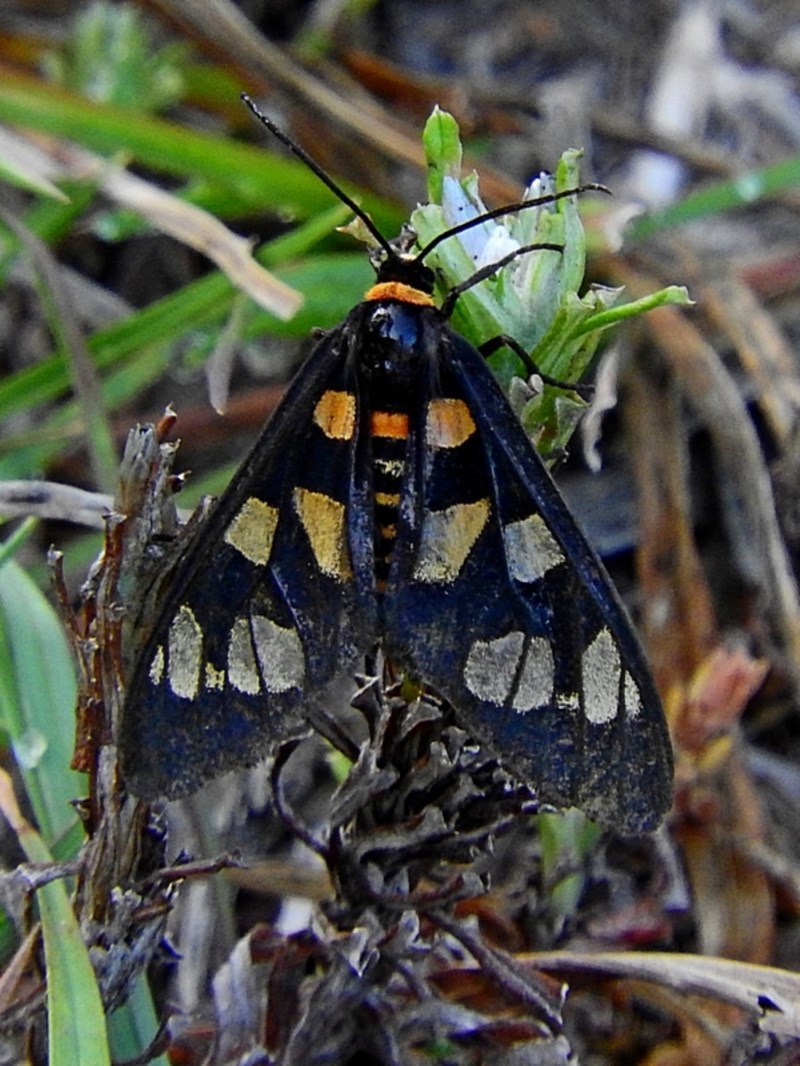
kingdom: Animalia
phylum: Arthropoda
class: Insecta
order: Lepidoptera
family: Erebidae
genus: Amata
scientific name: Amata nigriceps
